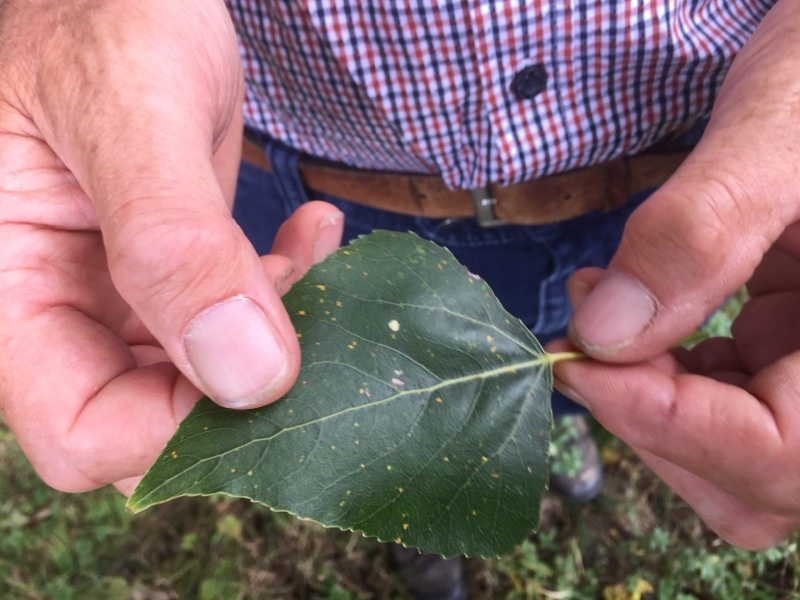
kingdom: Plantae
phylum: Tracheophyta
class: Magnoliopsida
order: Malpighiales
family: Salicaceae
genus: Populus
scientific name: Populus nigra
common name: Black poplar
